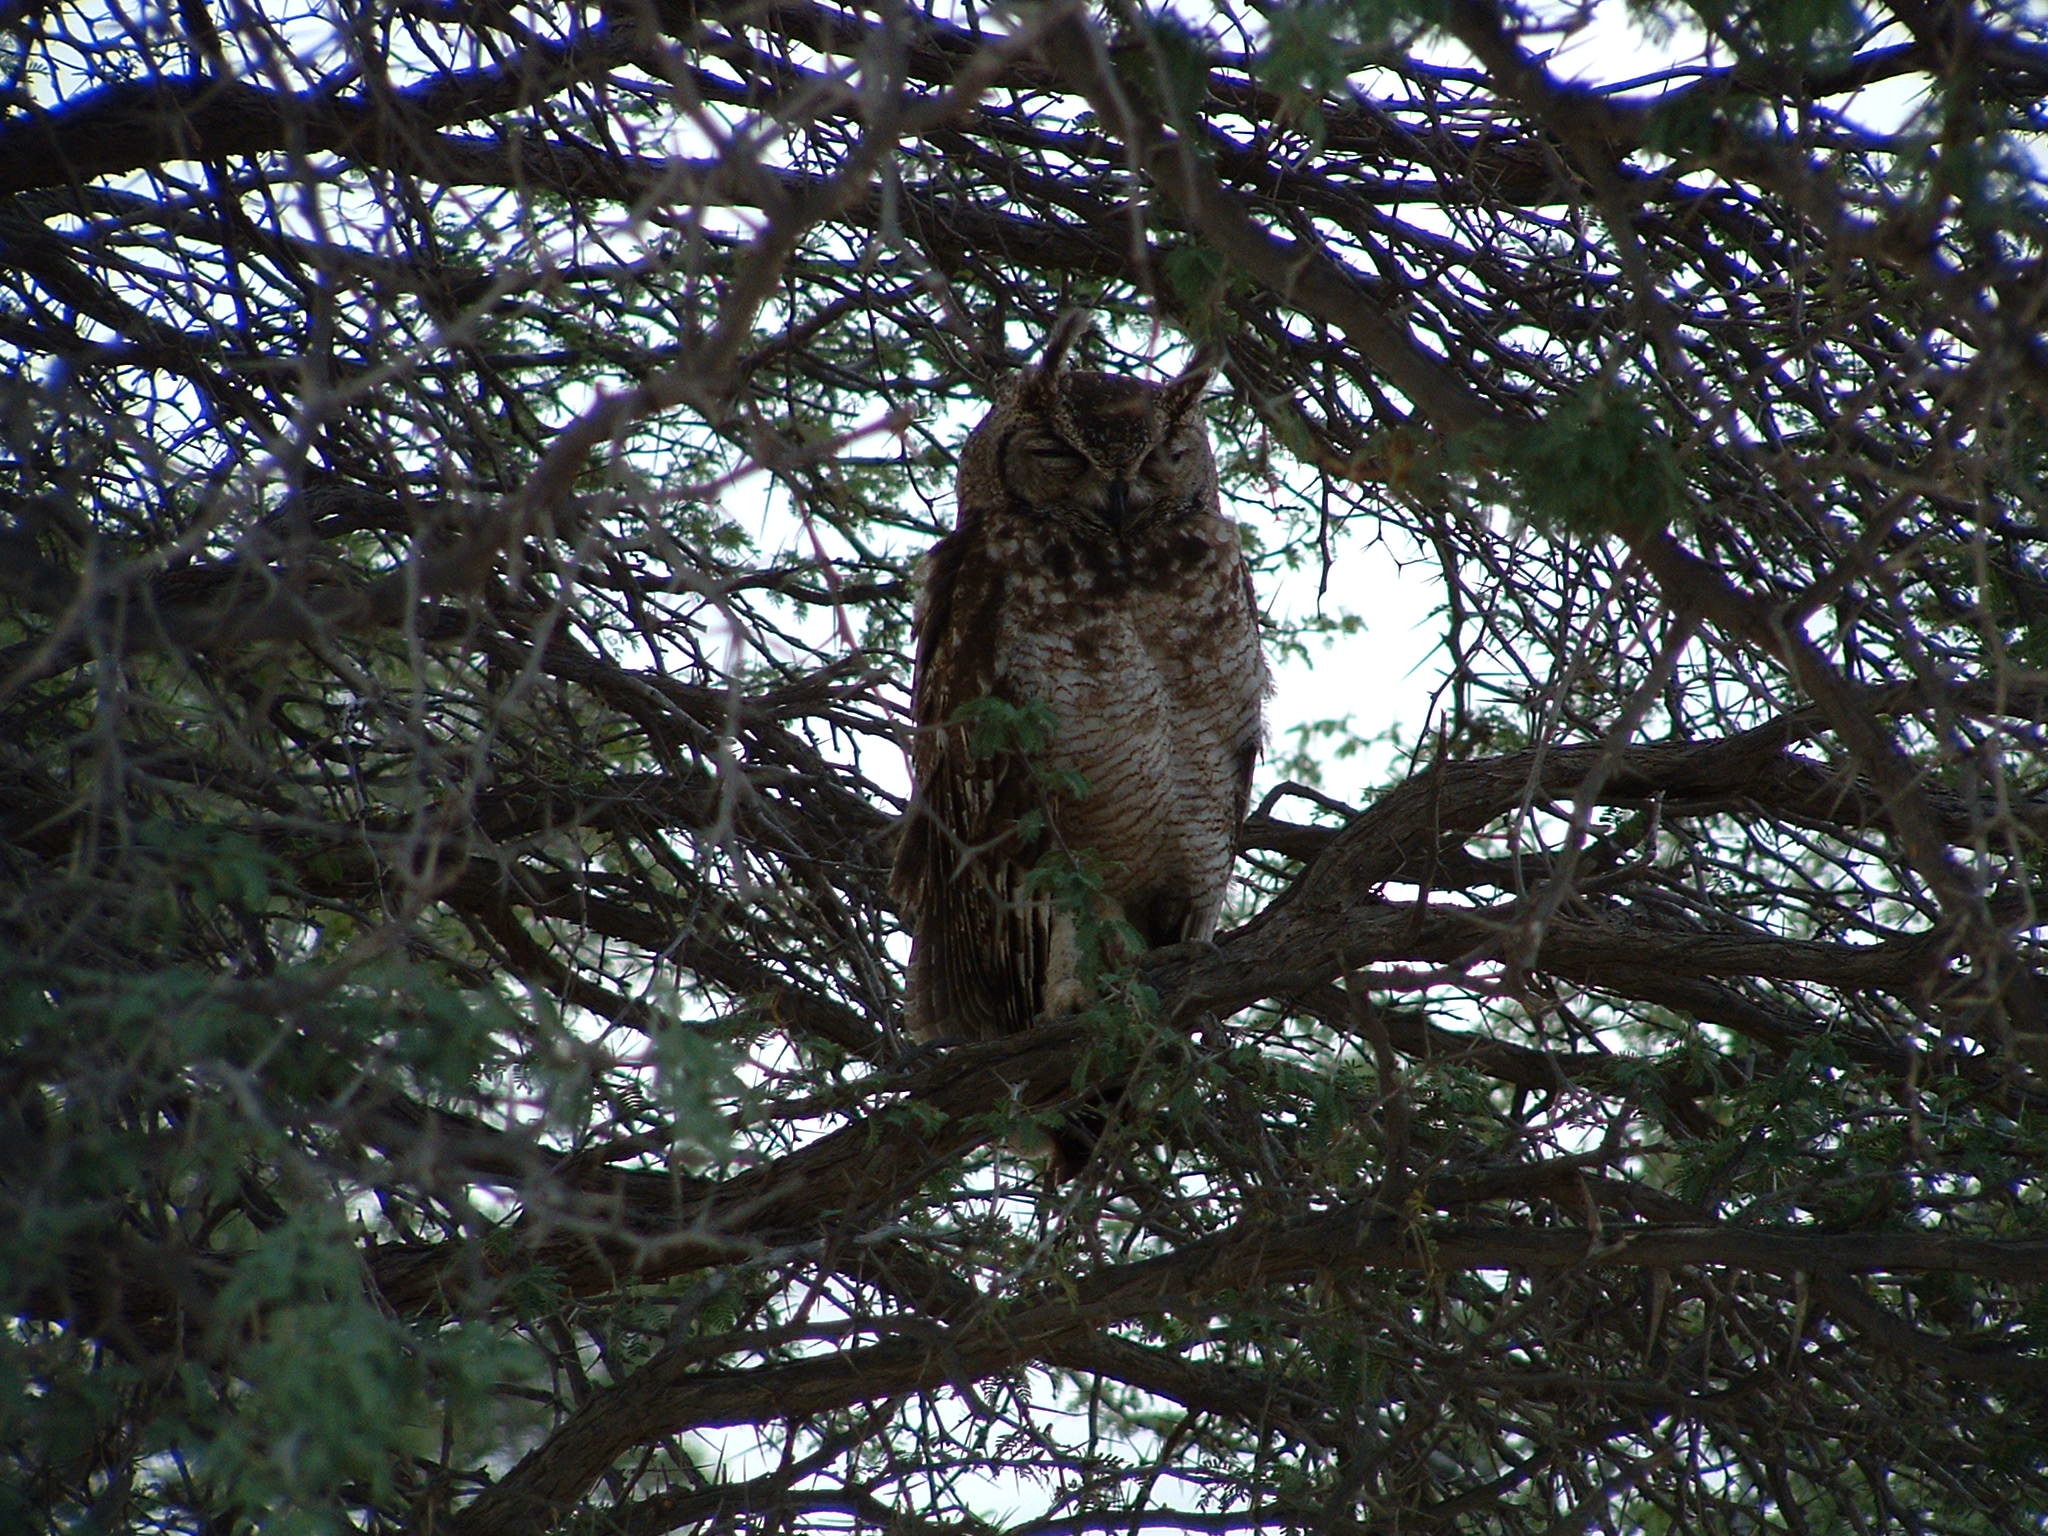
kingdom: Animalia
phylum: Chordata
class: Aves
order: Strigiformes
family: Strigidae
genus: Bubo
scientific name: Bubo africanus
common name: Spotted eagle-owl
